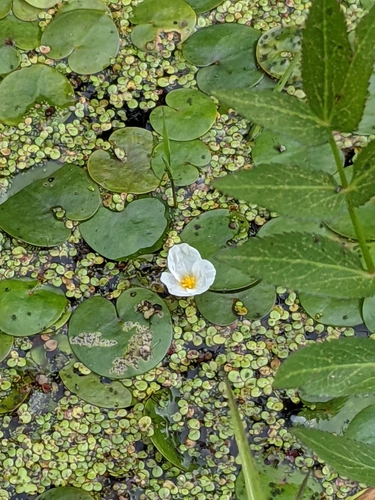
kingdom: Plantae
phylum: Tracheophyta
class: Liliopsida
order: Alismatales
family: Hydrocharitaceae
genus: Hydrocharis
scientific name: Hydrocharis morsus-ranae
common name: European frog-bit
